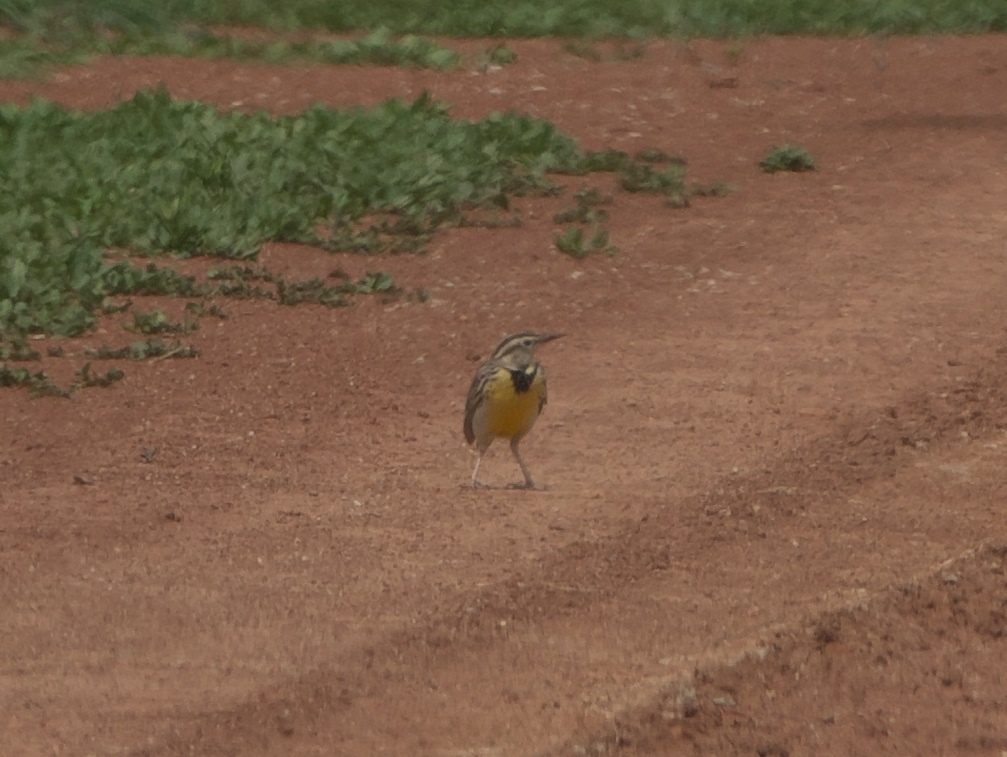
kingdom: Animalia
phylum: Chordata
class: Aves
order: Passeriformes
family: Icteridae
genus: Sturnella
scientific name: Sturnella neglecta
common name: Western meadowlark
